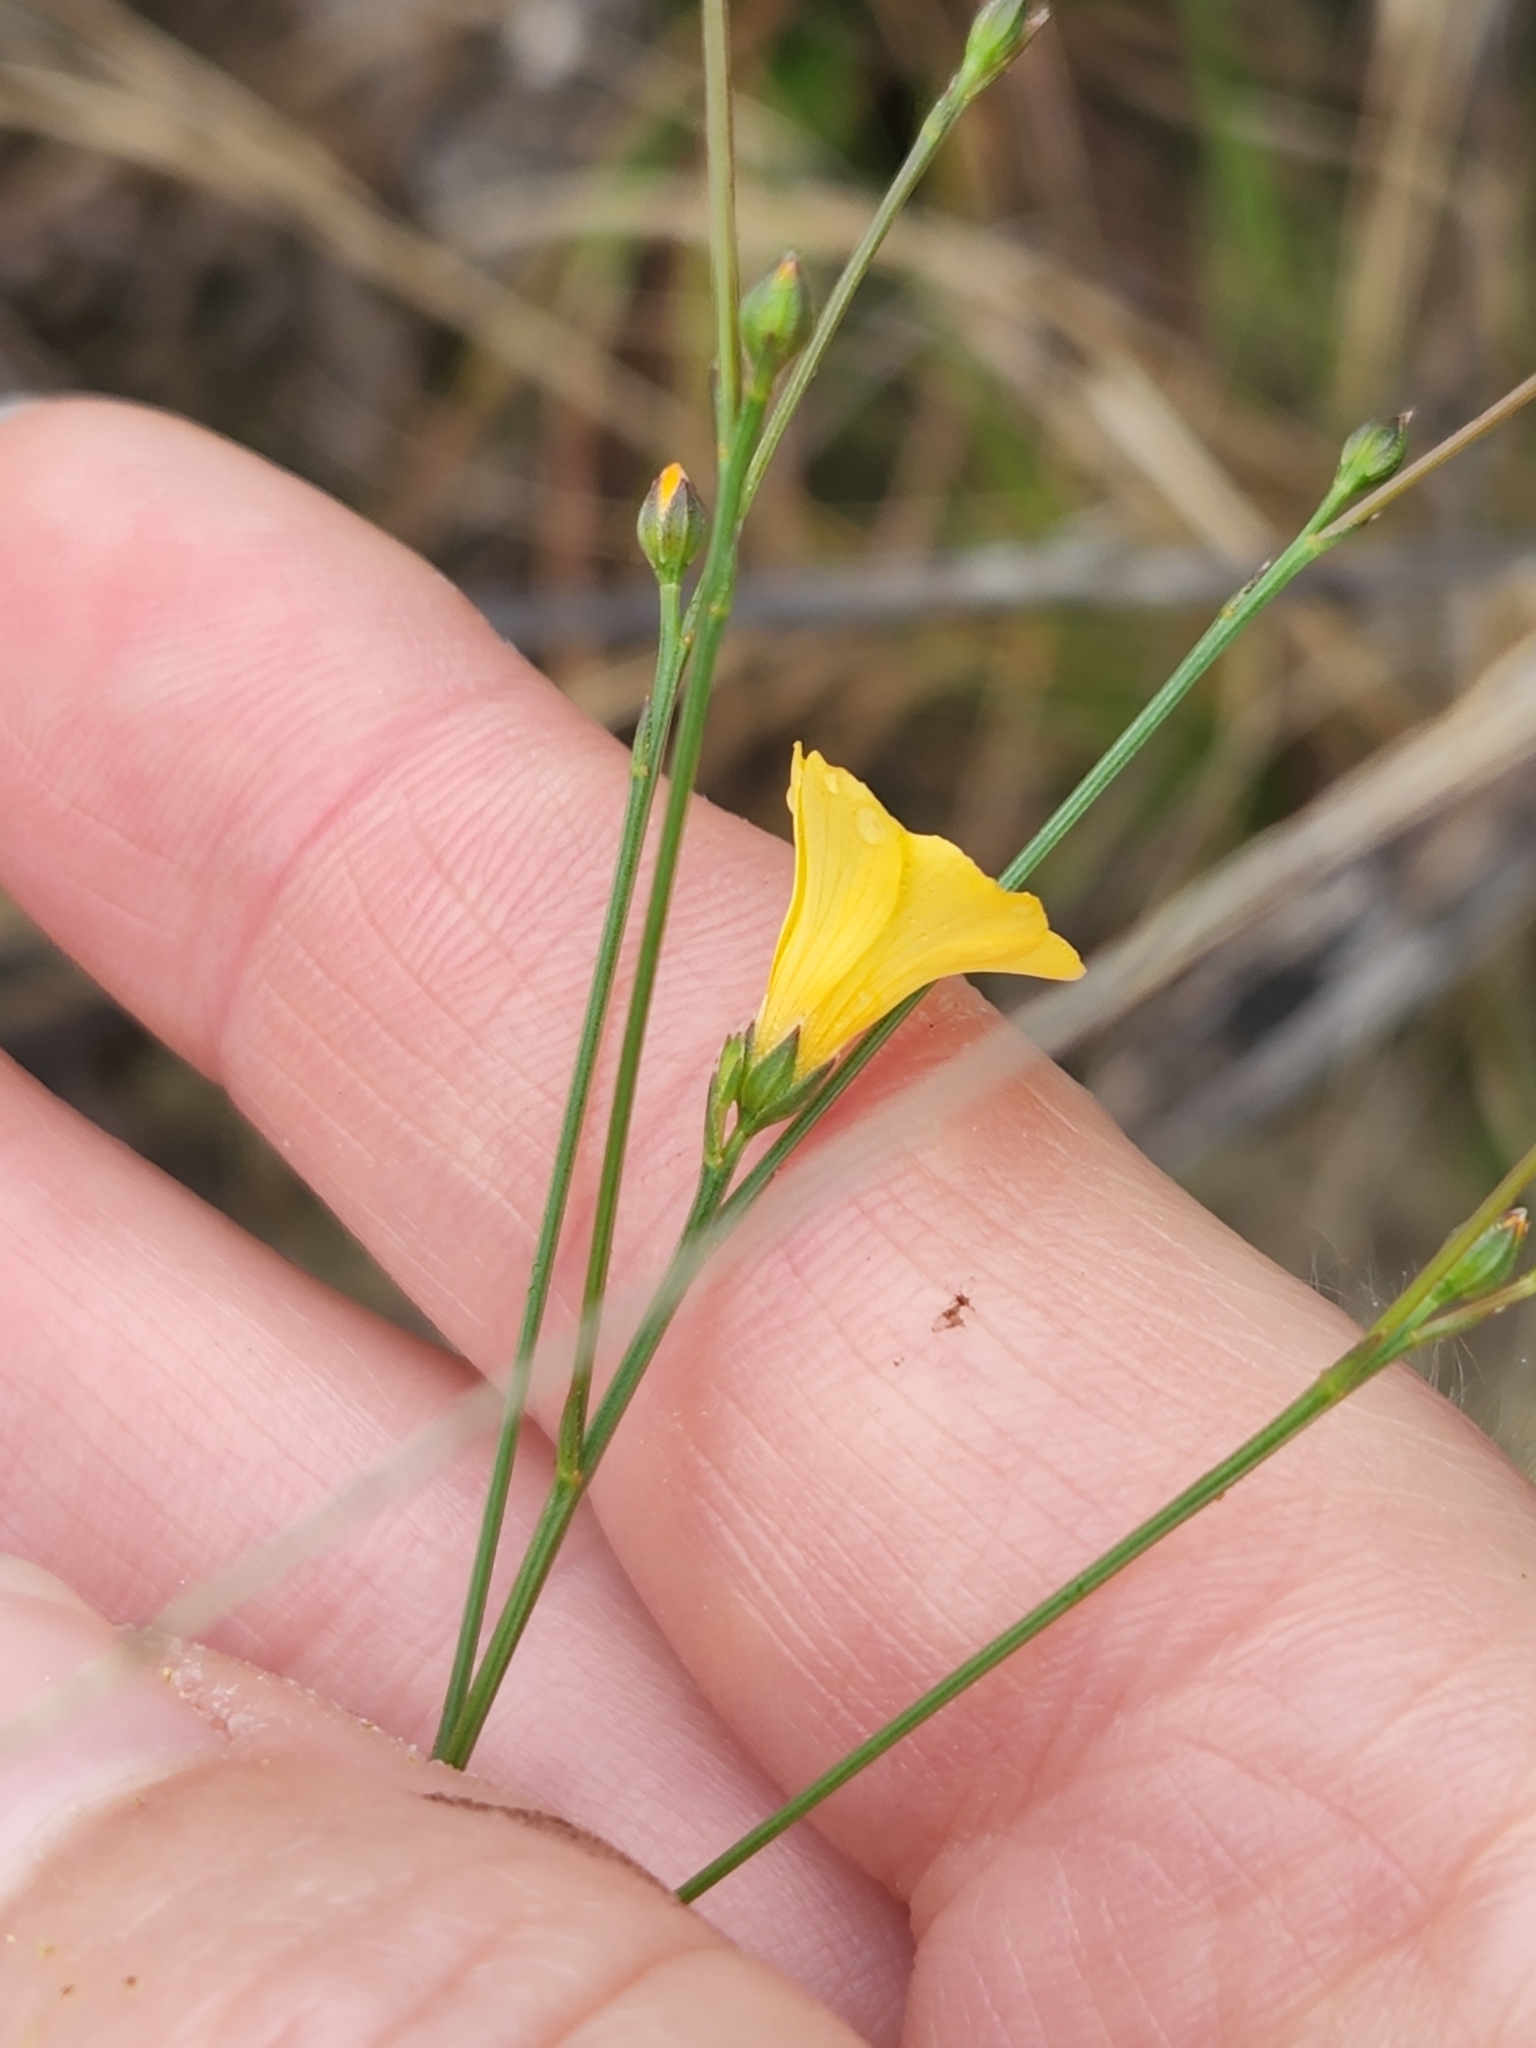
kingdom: Plantae
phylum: Tracheophyta
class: Magnoliopsida
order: Malpighiales
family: Linaceae
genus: Linum
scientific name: Linum rupestre
